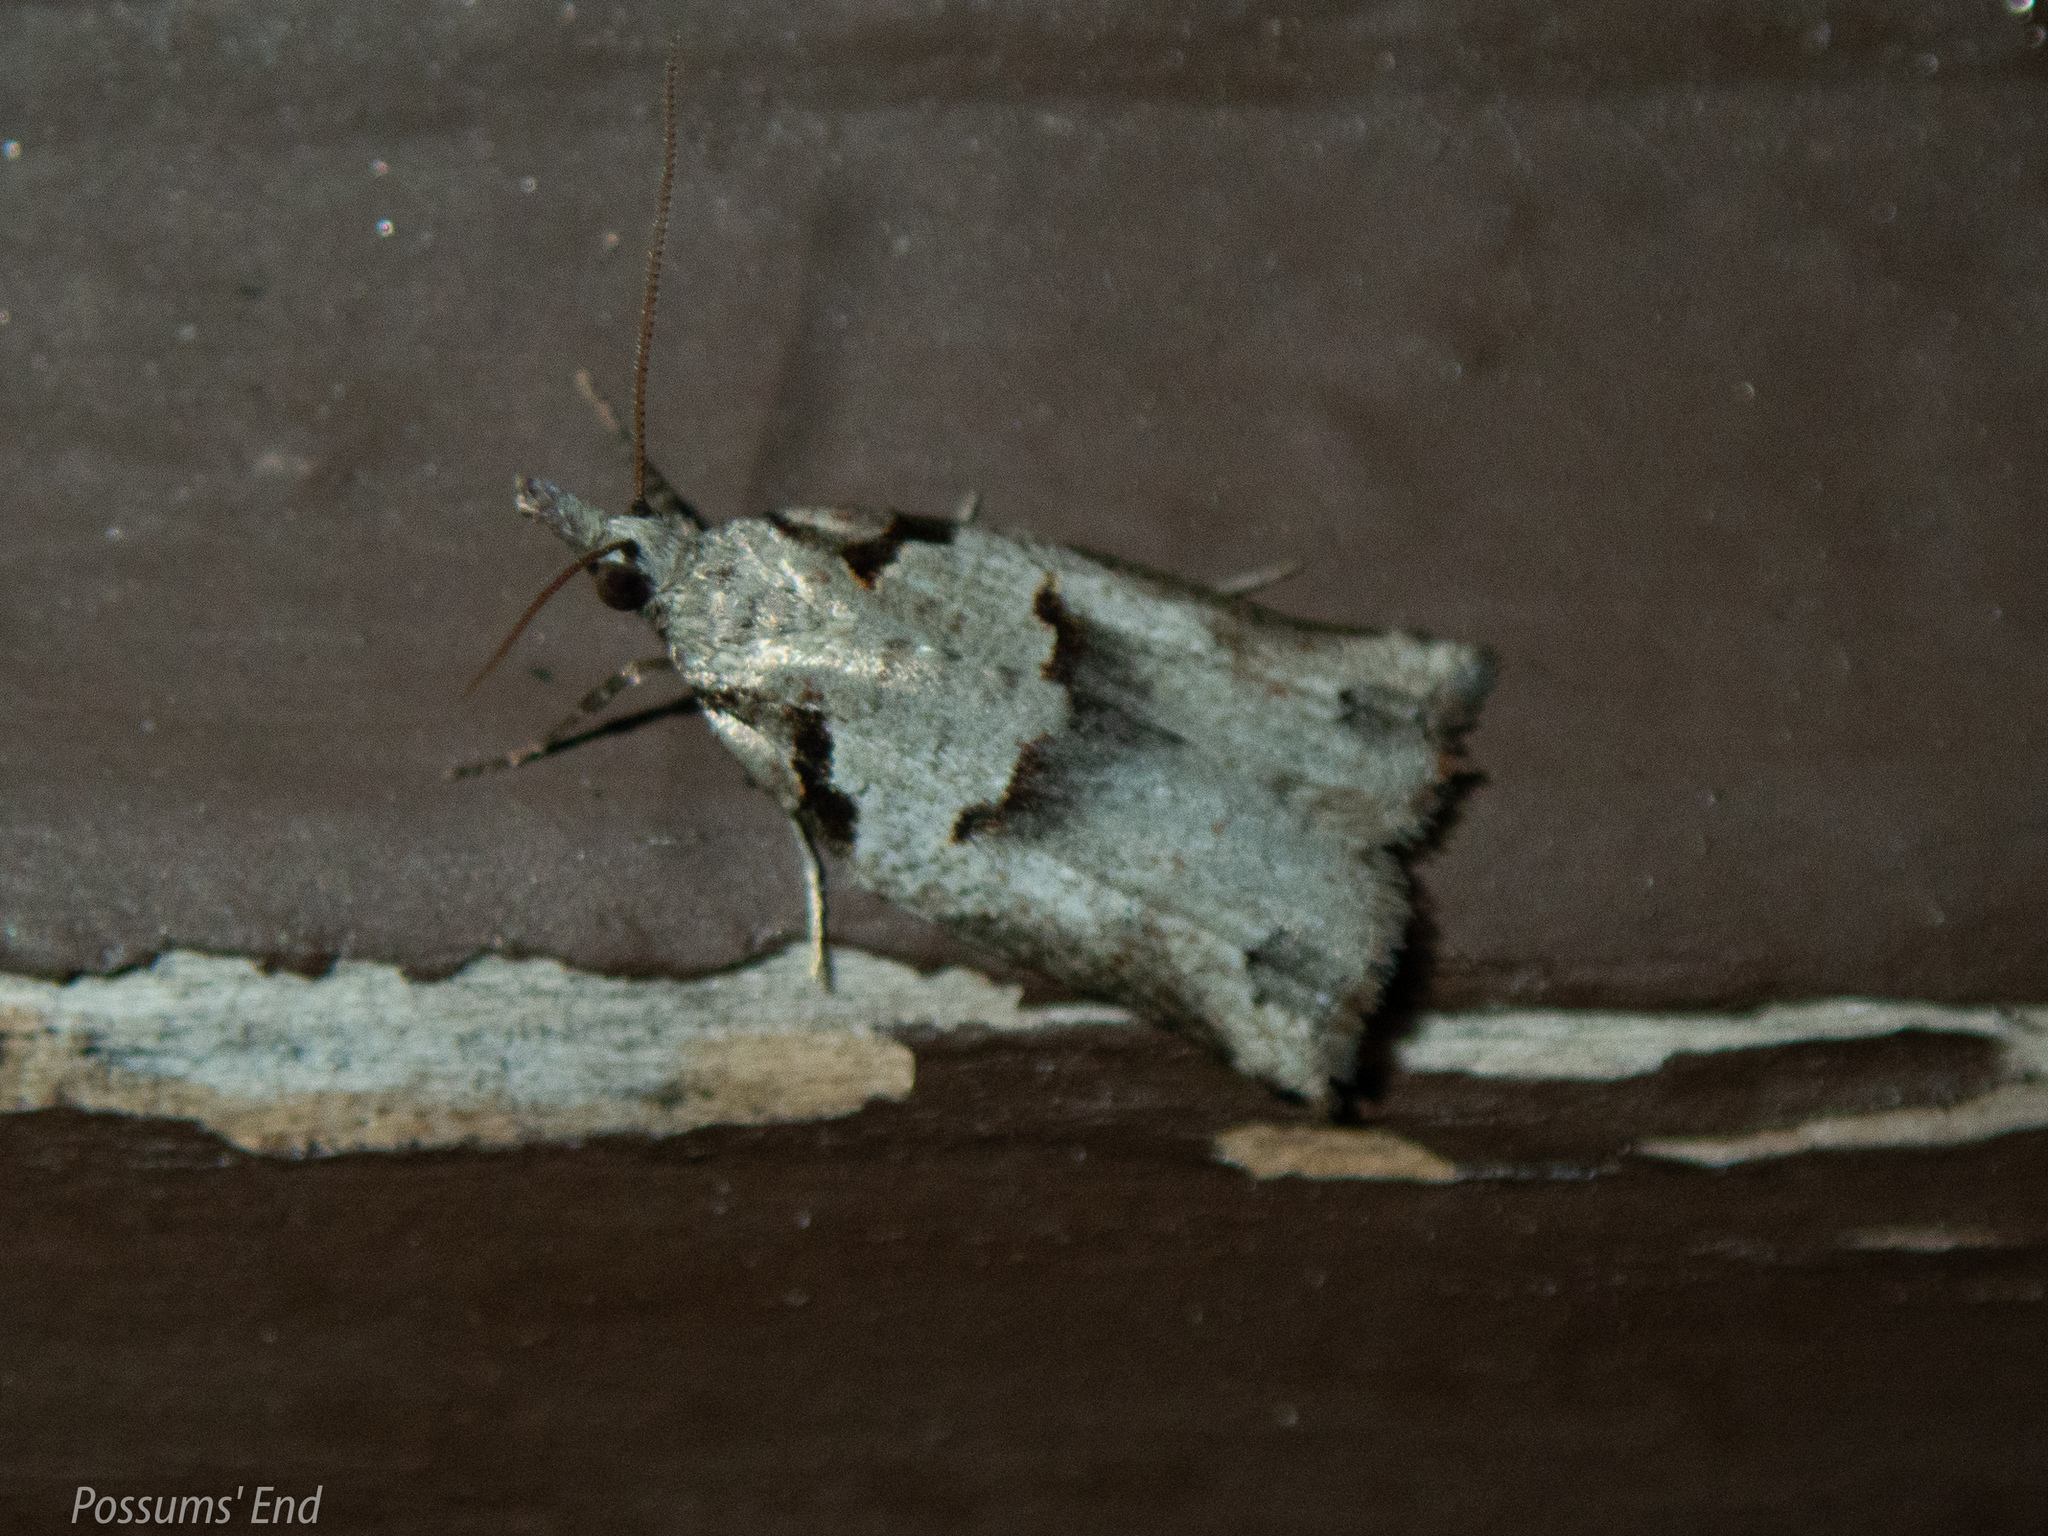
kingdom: Animalia
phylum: Arthropoda
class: Insecta
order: Lepidoptera
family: Tortricidae
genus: Harmologa
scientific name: Harmologa amplexana
